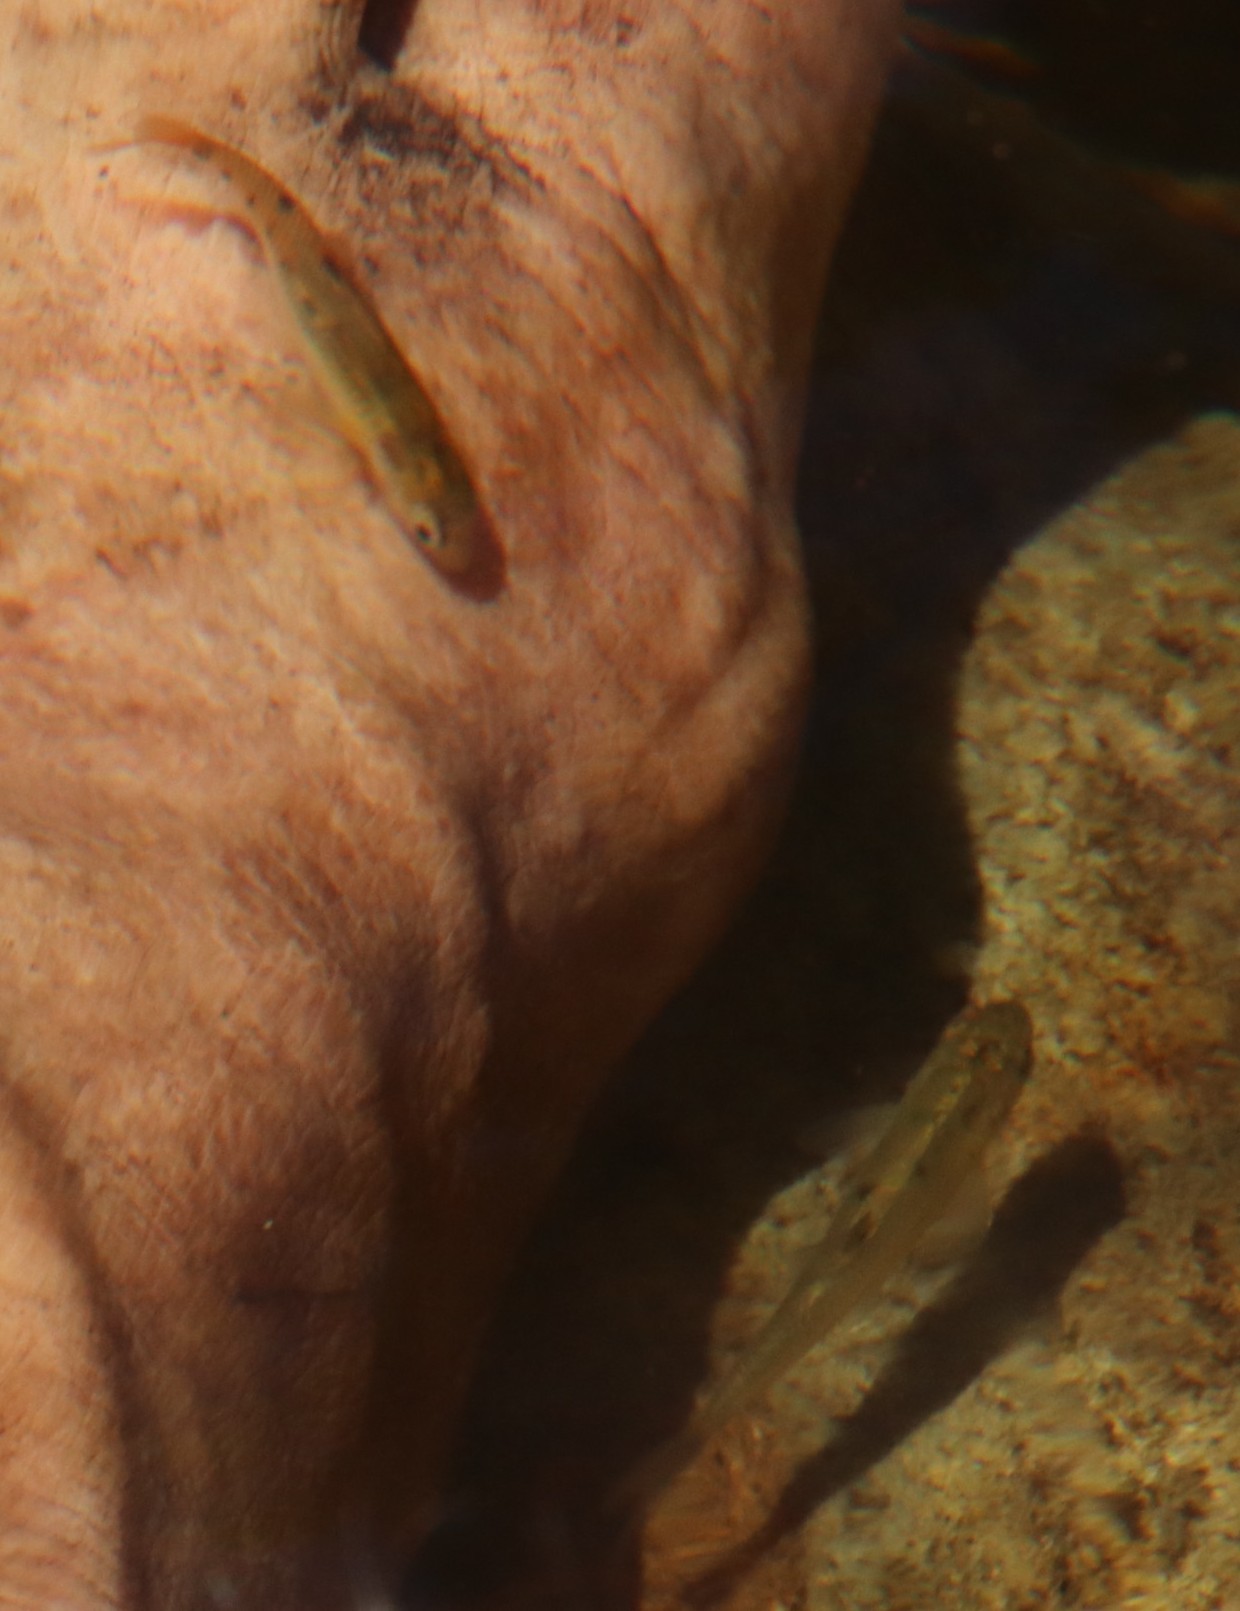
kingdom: Animalia
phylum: Chordata
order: Cypriniformes
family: Cyprinidae
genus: Pseudobarbus
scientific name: Pseudobarbus burchelli
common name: Burchell's redfin
